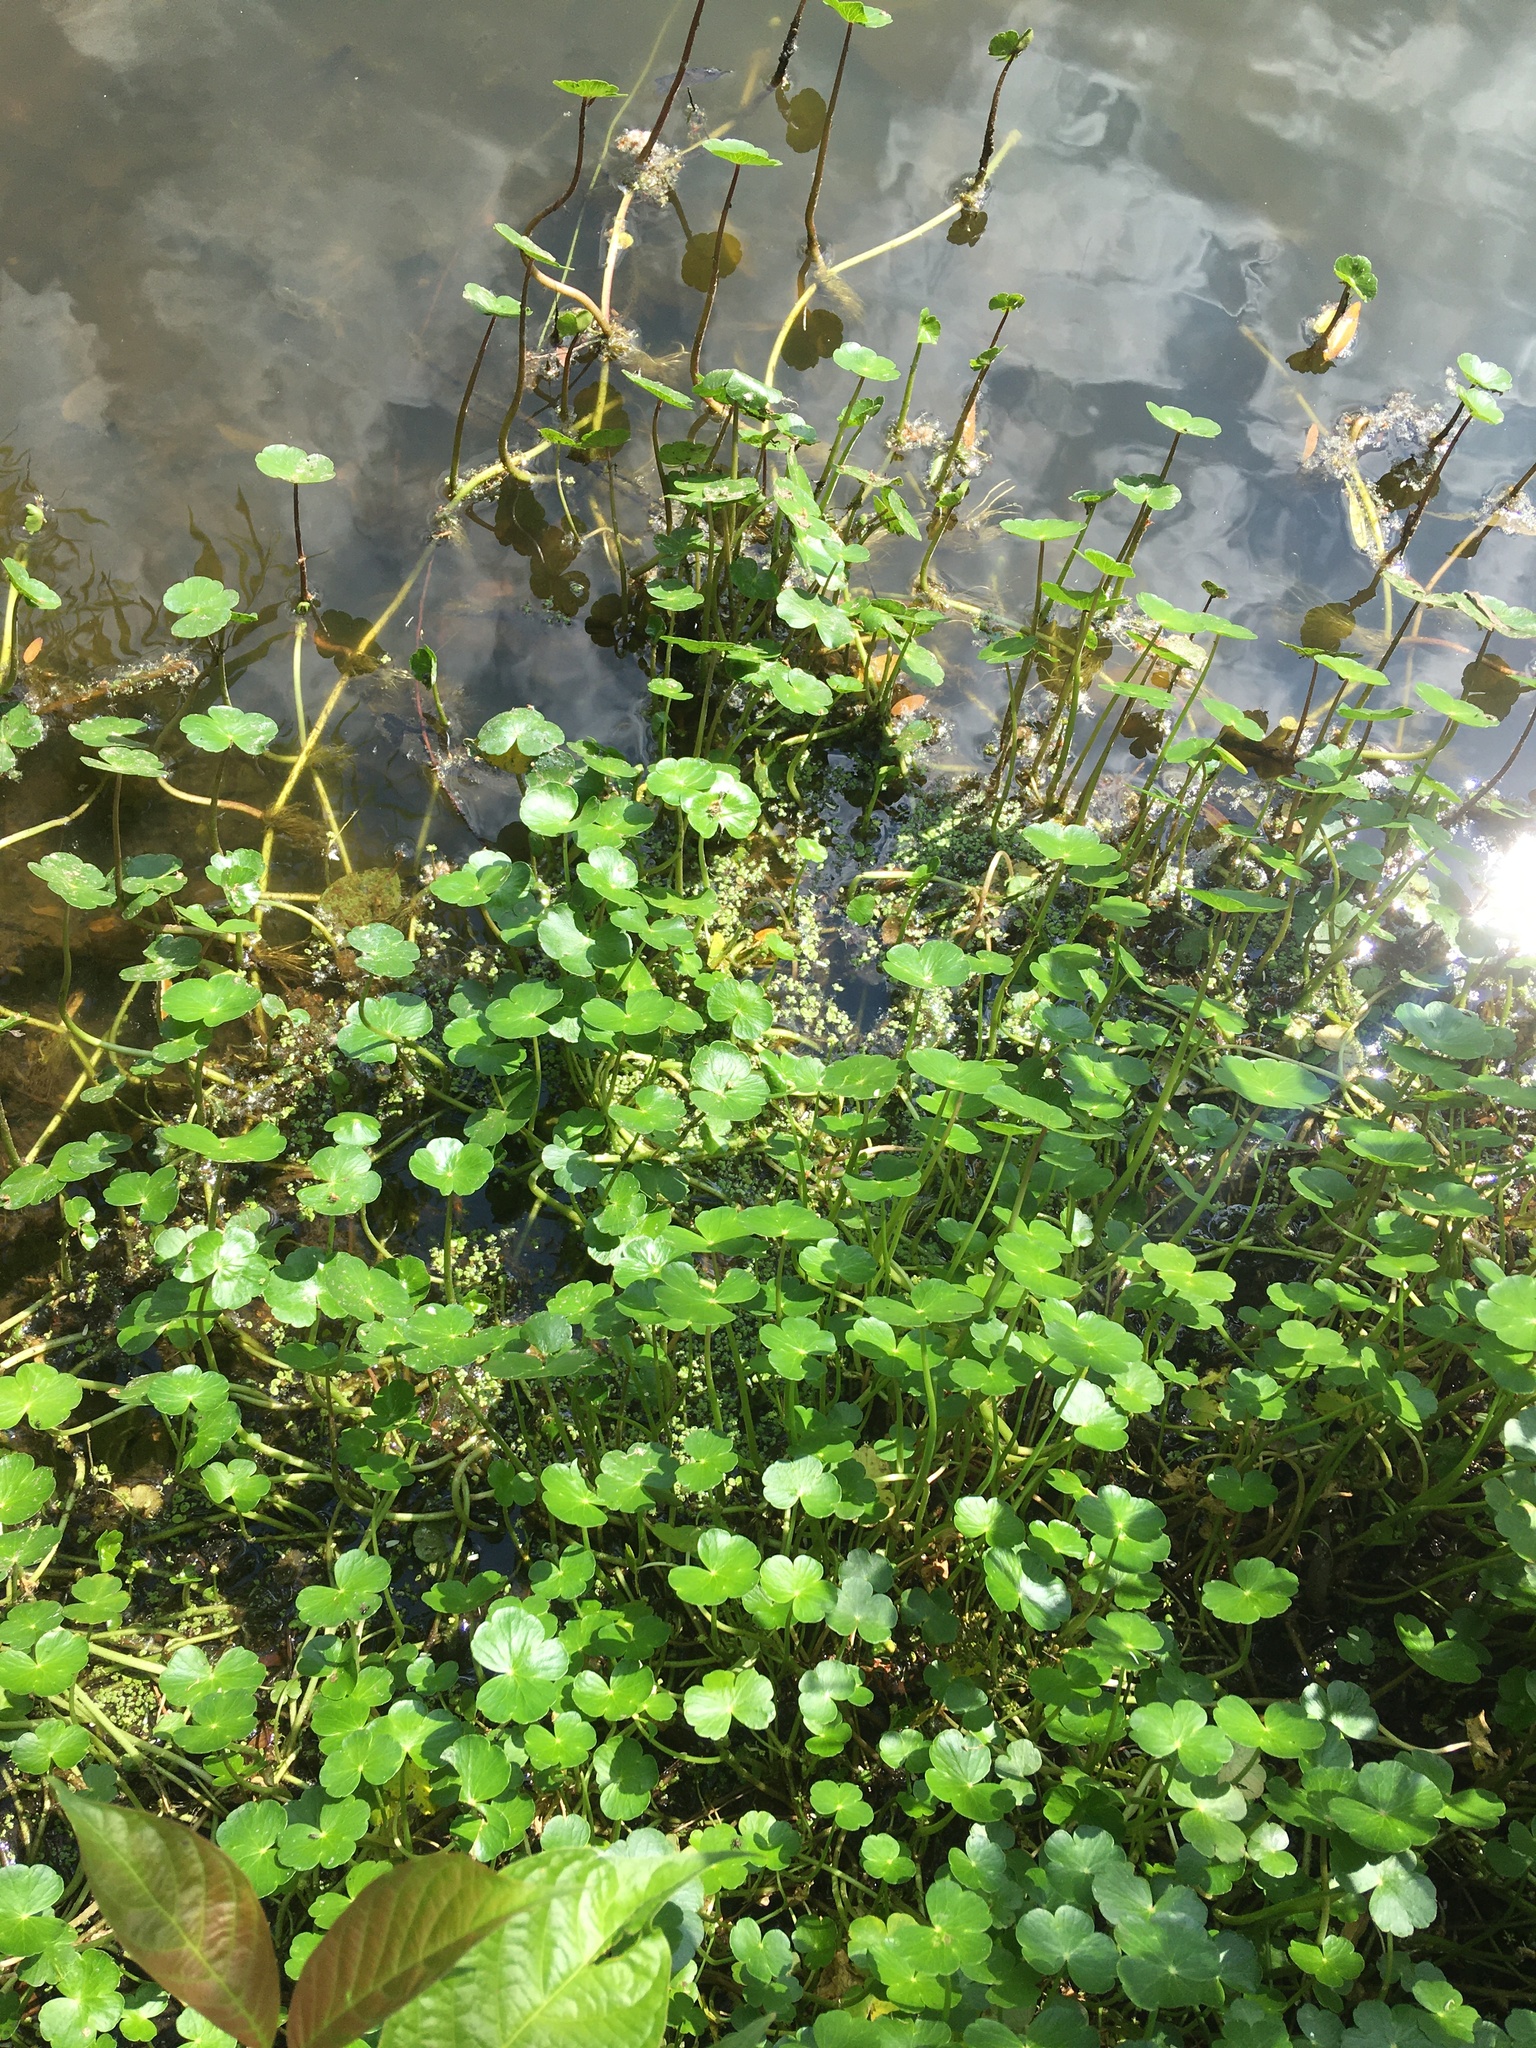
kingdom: Plantae
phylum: Tracheophyta
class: Magnoliopsida
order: Apiales
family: Araliaceae
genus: Hydrocotyle
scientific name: Hydrocotyle ranunculoides
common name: Floating pennywort
